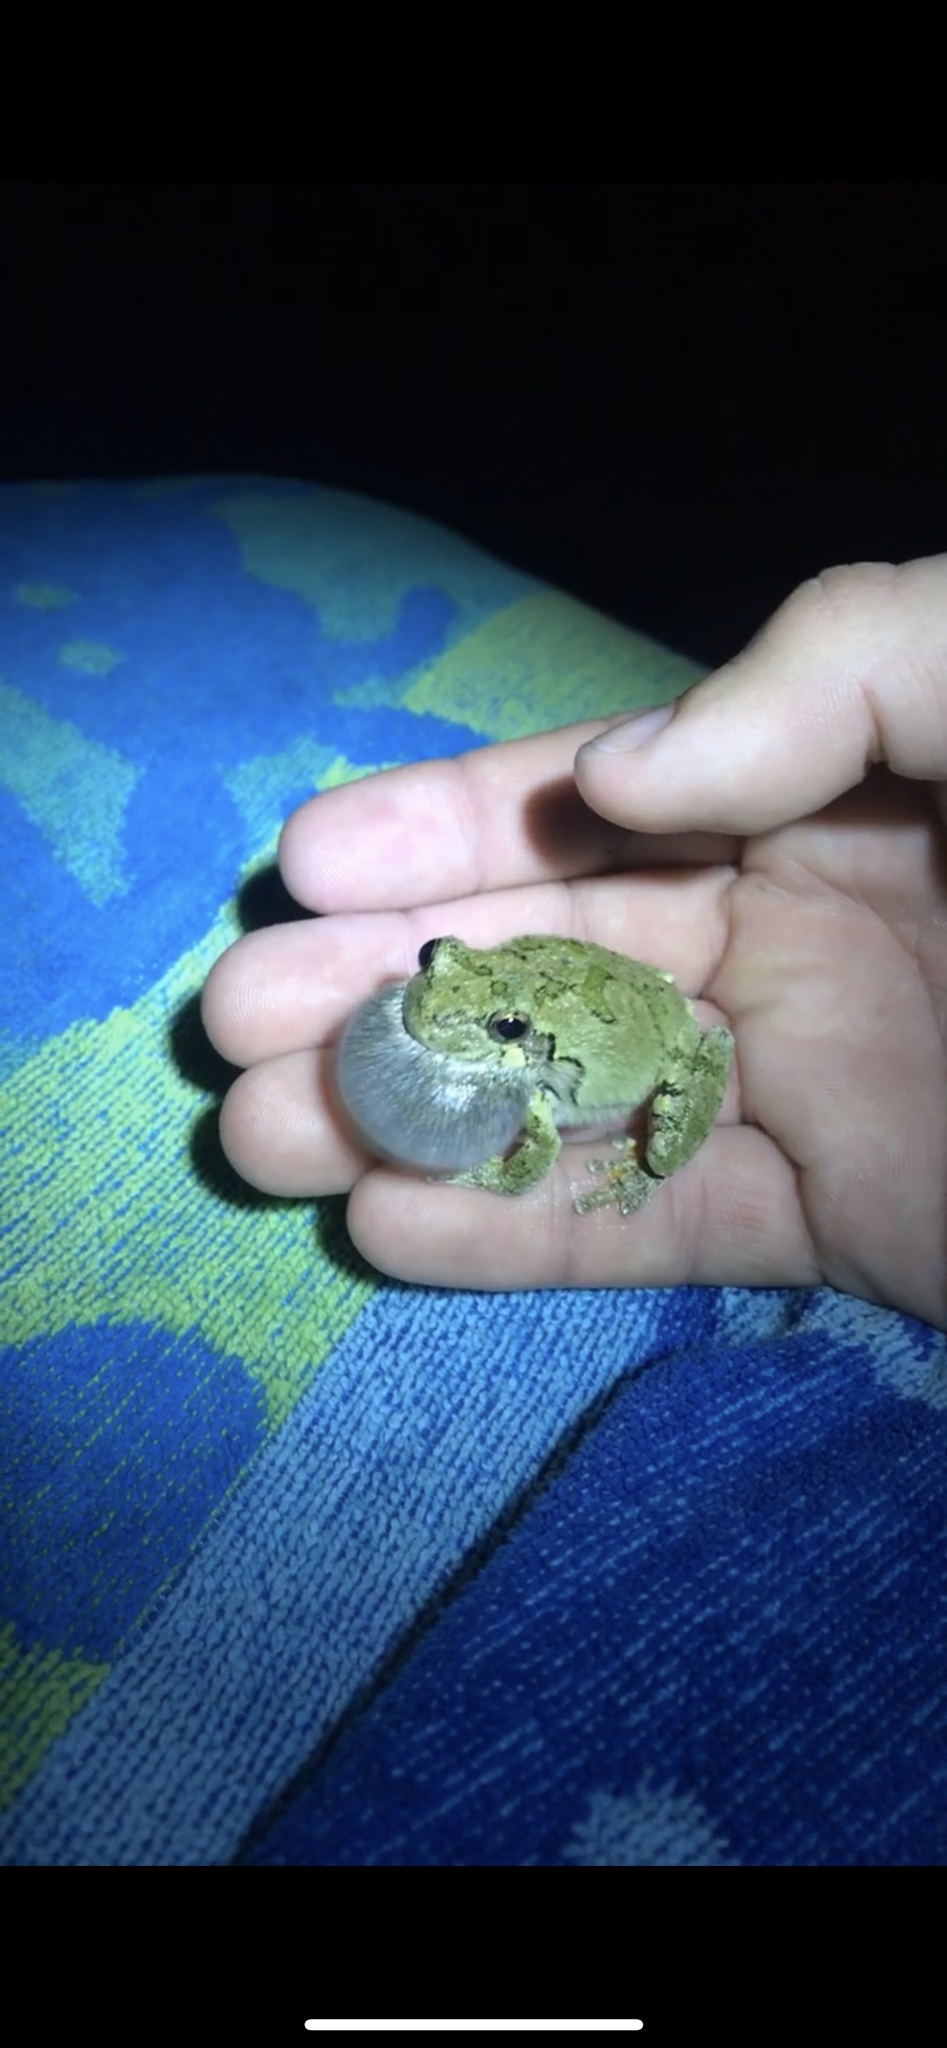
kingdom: Animalia
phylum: Chordata
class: Amphibia
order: Anura
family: Hylidae
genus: Dryophytes
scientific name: Dryophytes versicolor
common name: Gray treefrog
